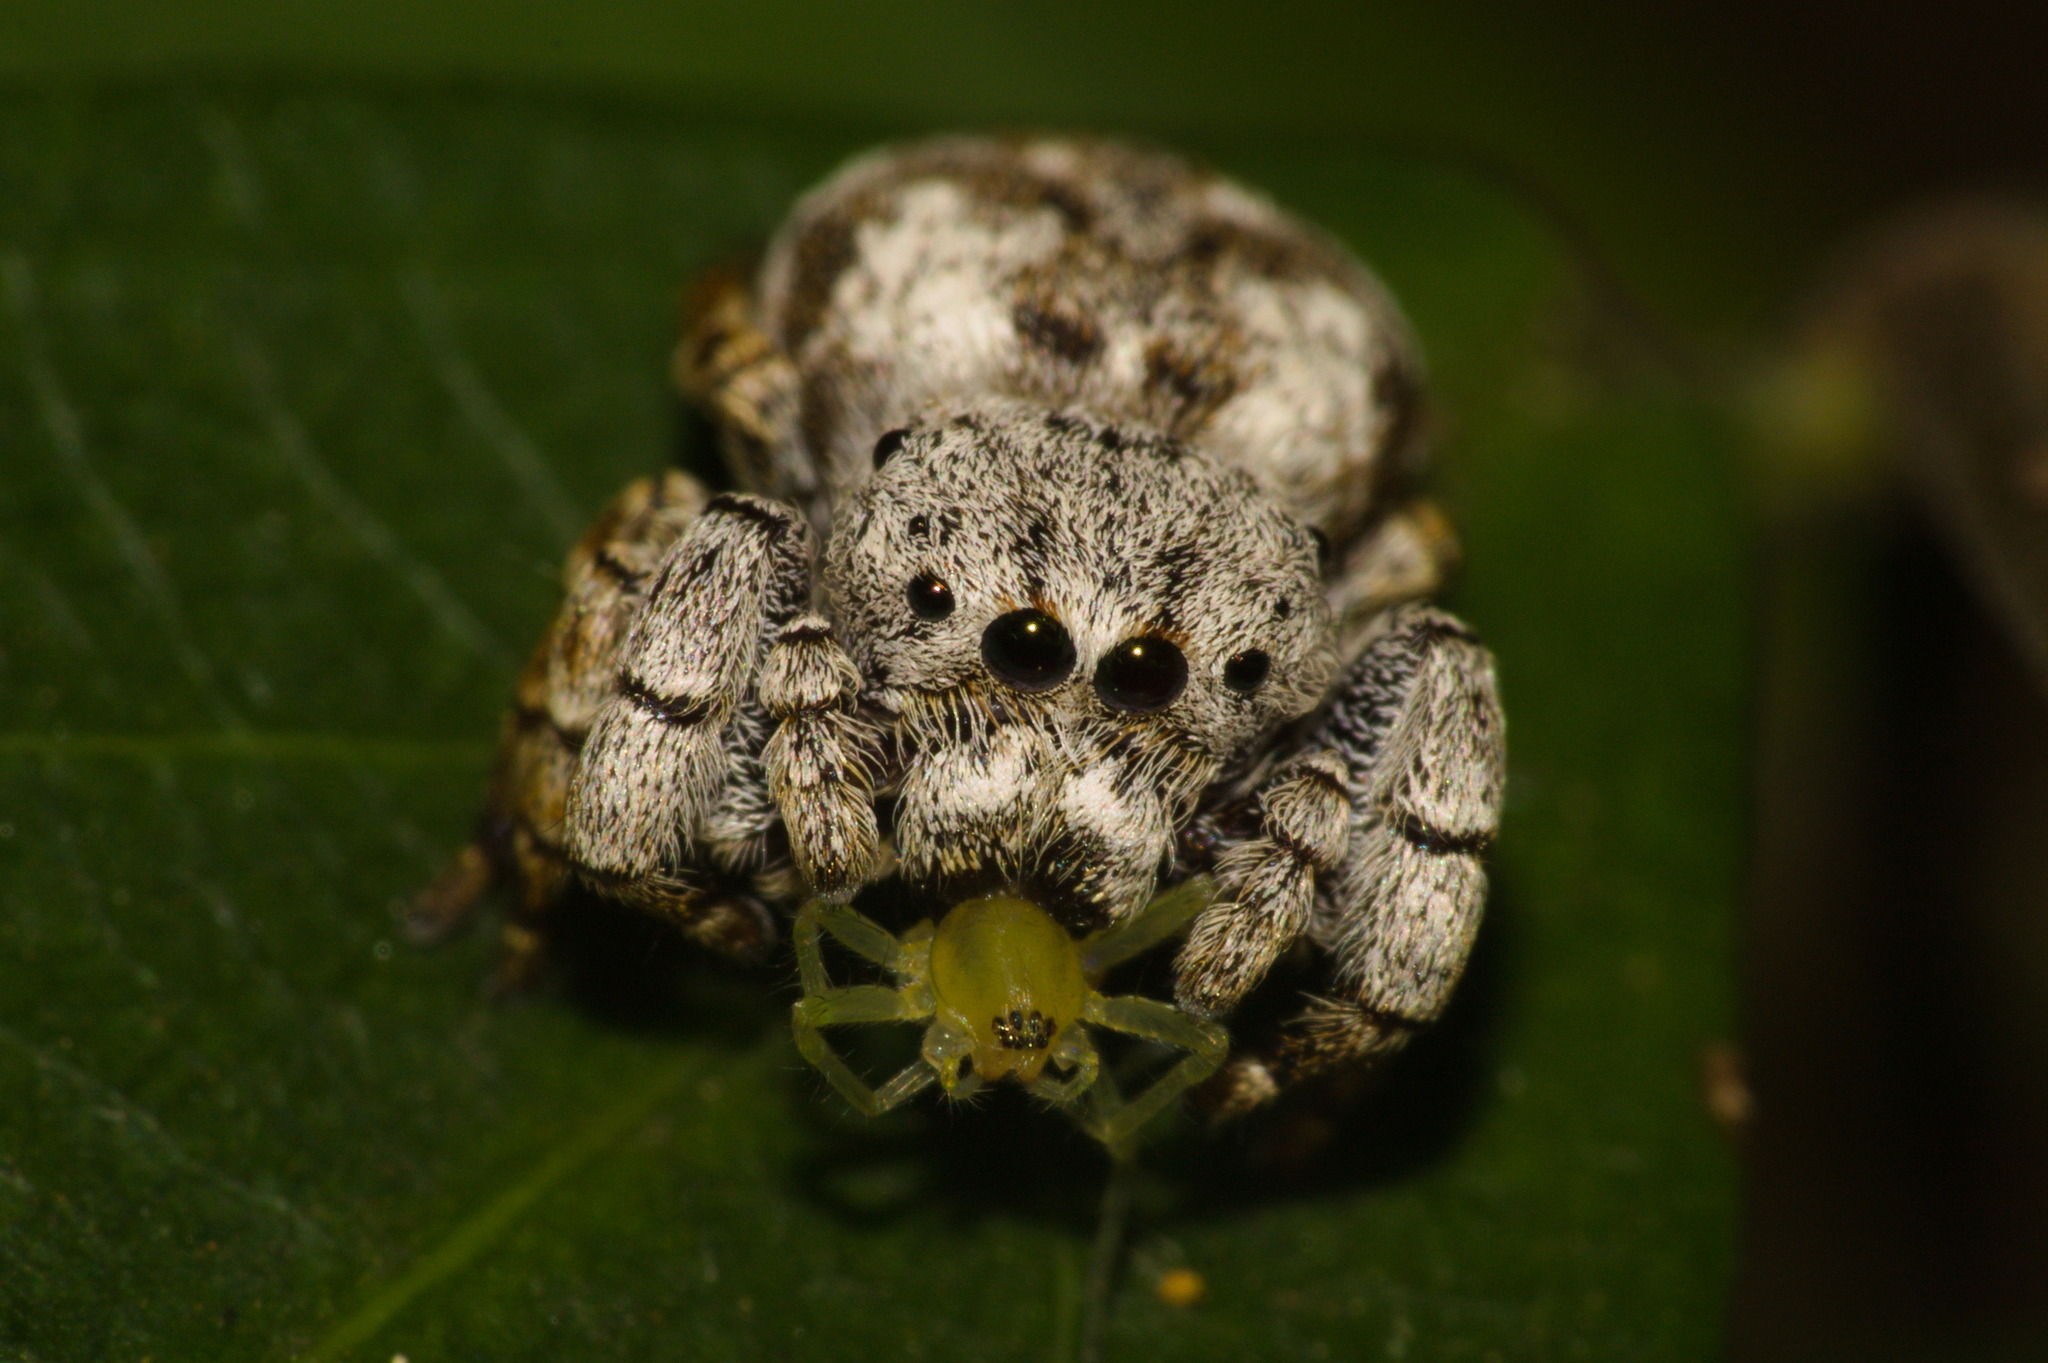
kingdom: Animalia
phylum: Arthropoda
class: Arachnida
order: Araneae
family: Salticidae
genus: Beata
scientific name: Beata aenea
